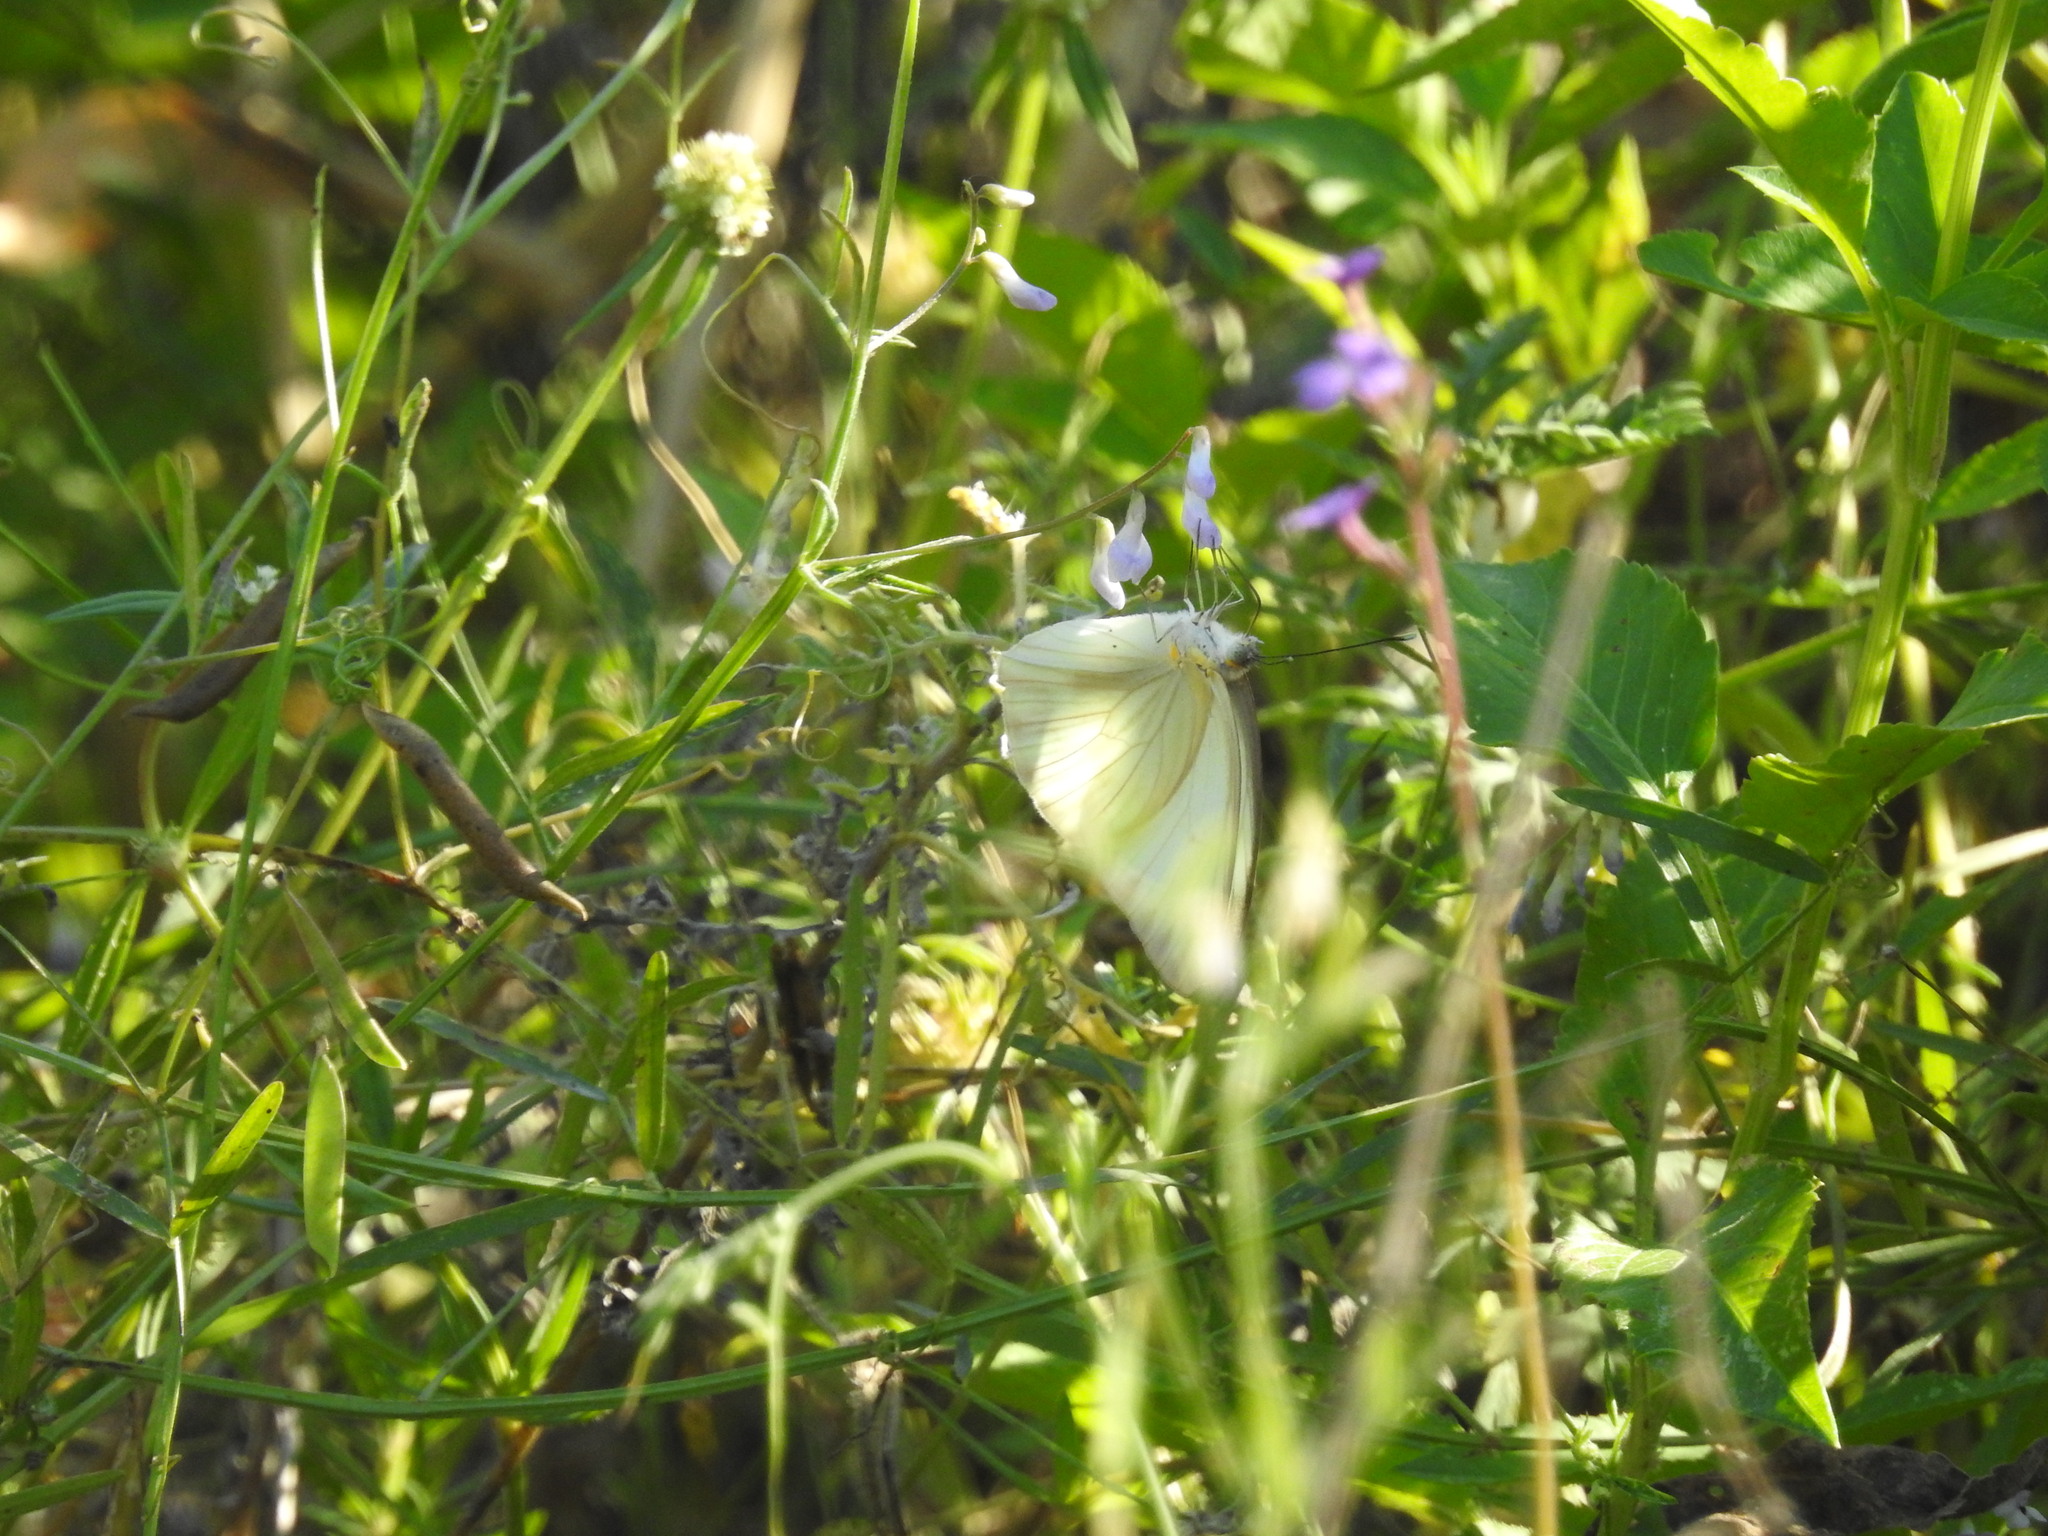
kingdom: Animalia
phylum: Arthropoda
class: Insecta
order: Lepidoptera
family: Pieridae
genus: Ascia
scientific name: Ascia monuste
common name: Great southern white
